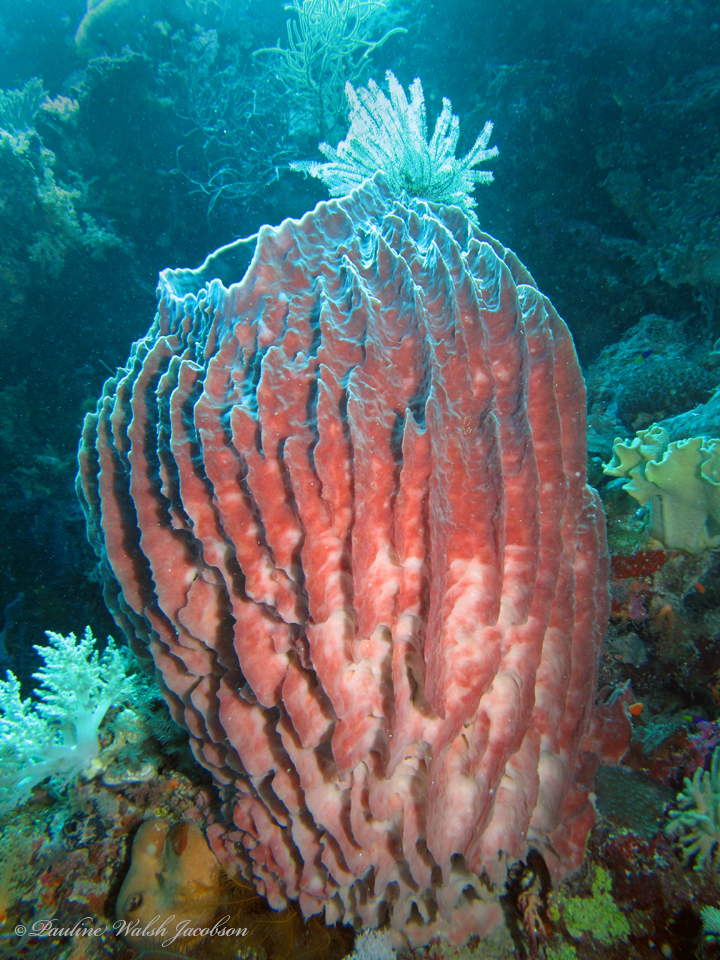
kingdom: Animalia
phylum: Porifera
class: Demospongiae
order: Haplosclerida
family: Petrosiidae
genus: Xestospongia
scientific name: Xestospongia testudinaria
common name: Barrel sponge
